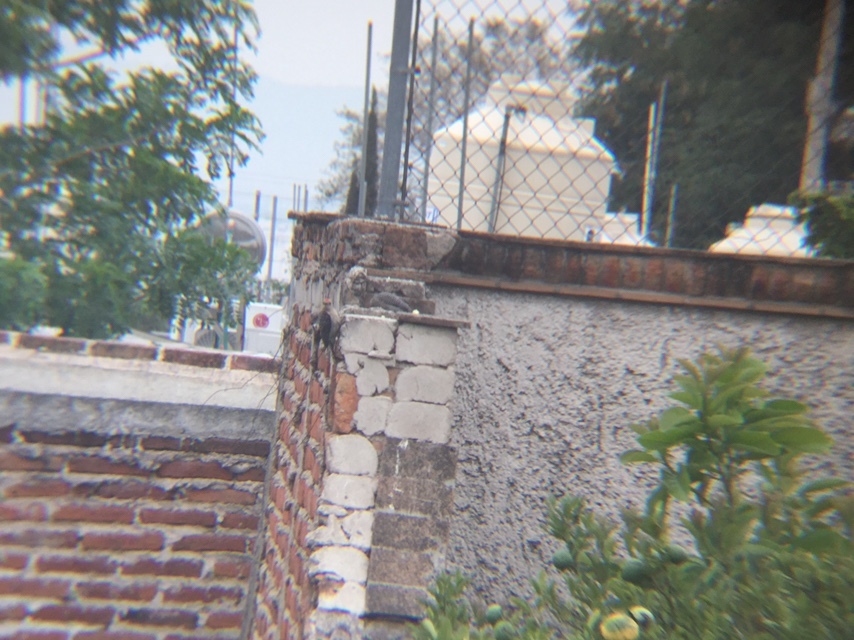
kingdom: Animalia
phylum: Chordata
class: Aves
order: Piciformes
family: Picidae
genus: Melanerpes
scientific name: Melanerpes aurifrons
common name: Golden-fronted woodpecker
